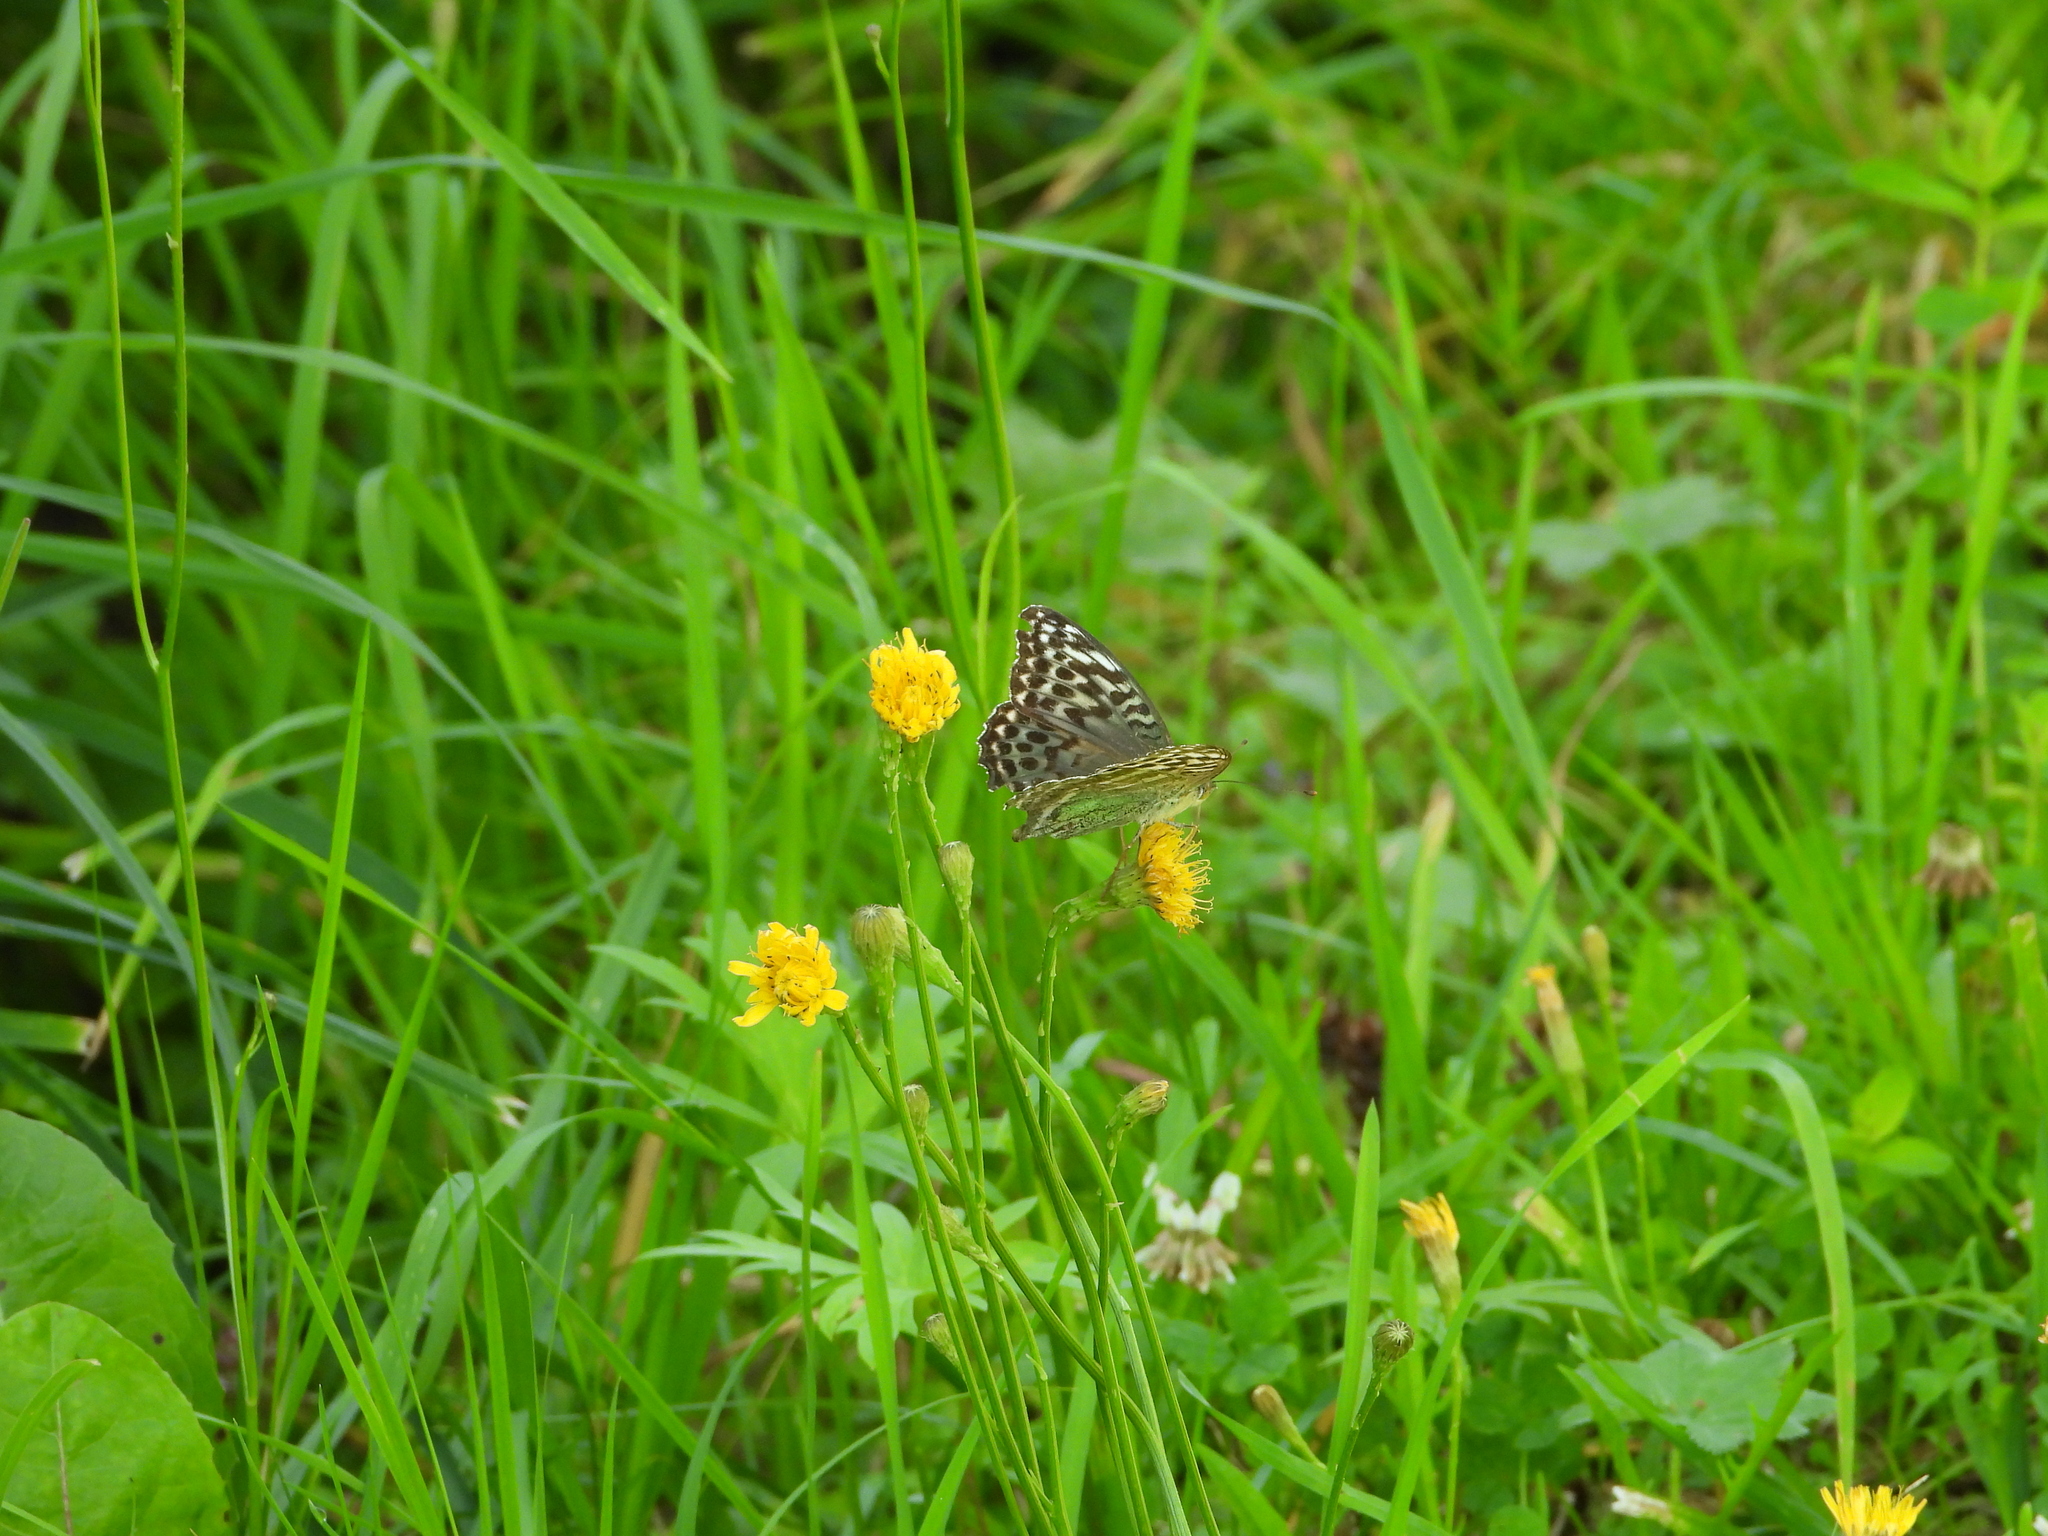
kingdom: Animalia
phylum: Arthropoda
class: Insecta
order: Lepidoptera
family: Nymphalidae
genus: Argynnis
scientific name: Argynnis paphia
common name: Silver-washed fritillary
